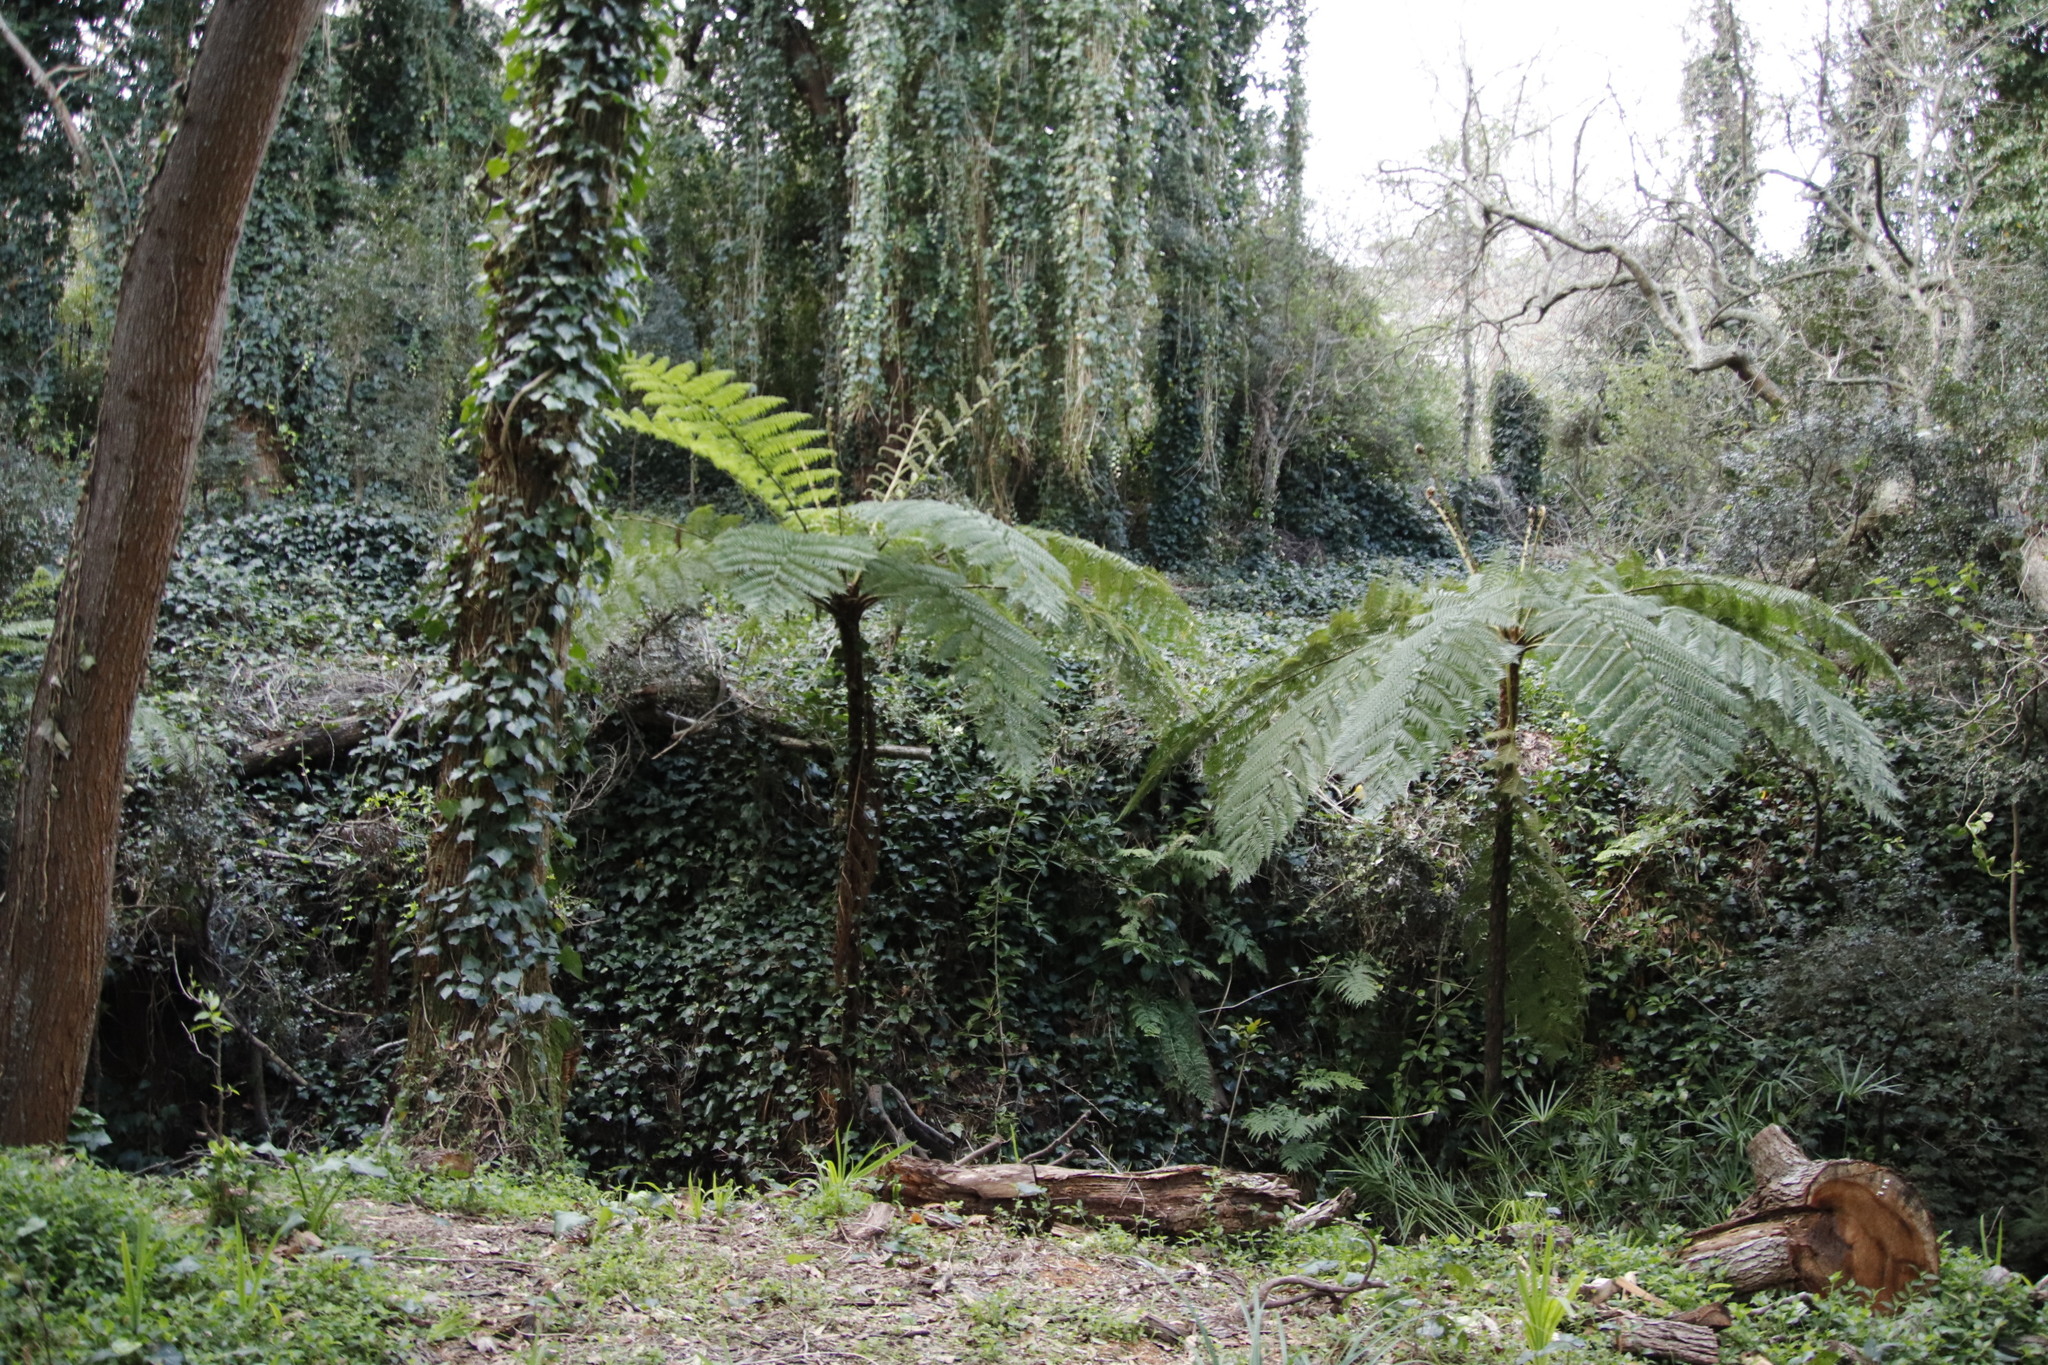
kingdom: Plantae
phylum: Tracheophyta
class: Polypodiopsida
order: Cyatheales
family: Cyatheaceae
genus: Sphaeropteris
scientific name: Sphaeropteris cooperi
